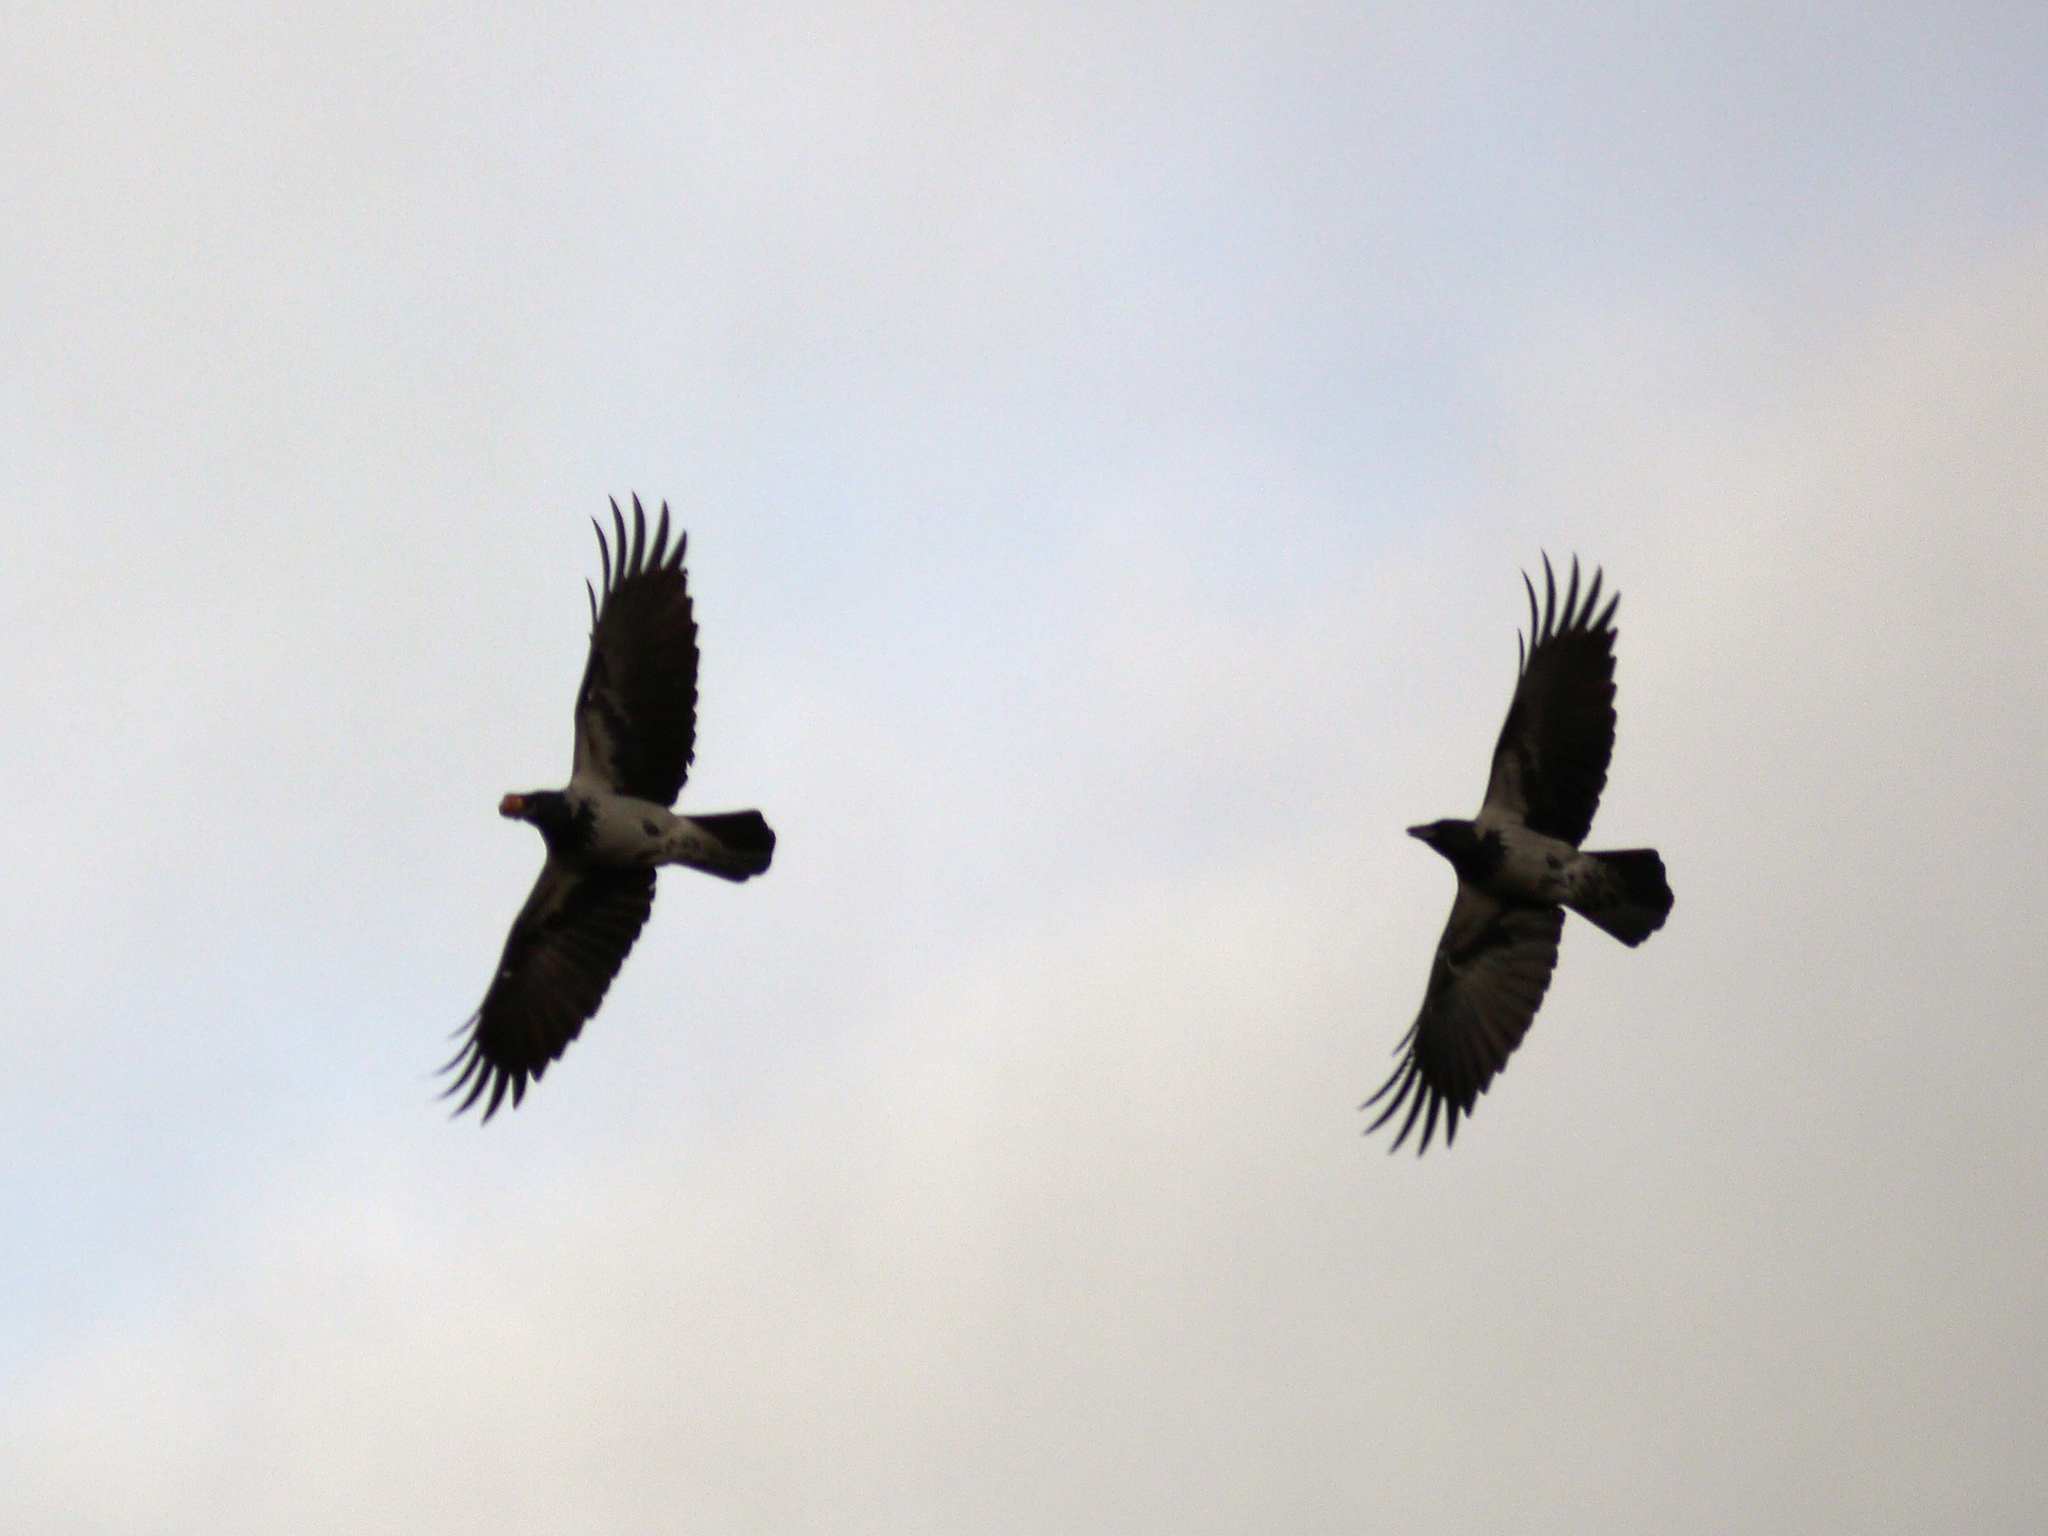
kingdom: Animalia
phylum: Chordata
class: Aves
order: Passeriformes
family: Corvidae
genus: Corvus
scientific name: Corvus cornix
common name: Hooded crow
